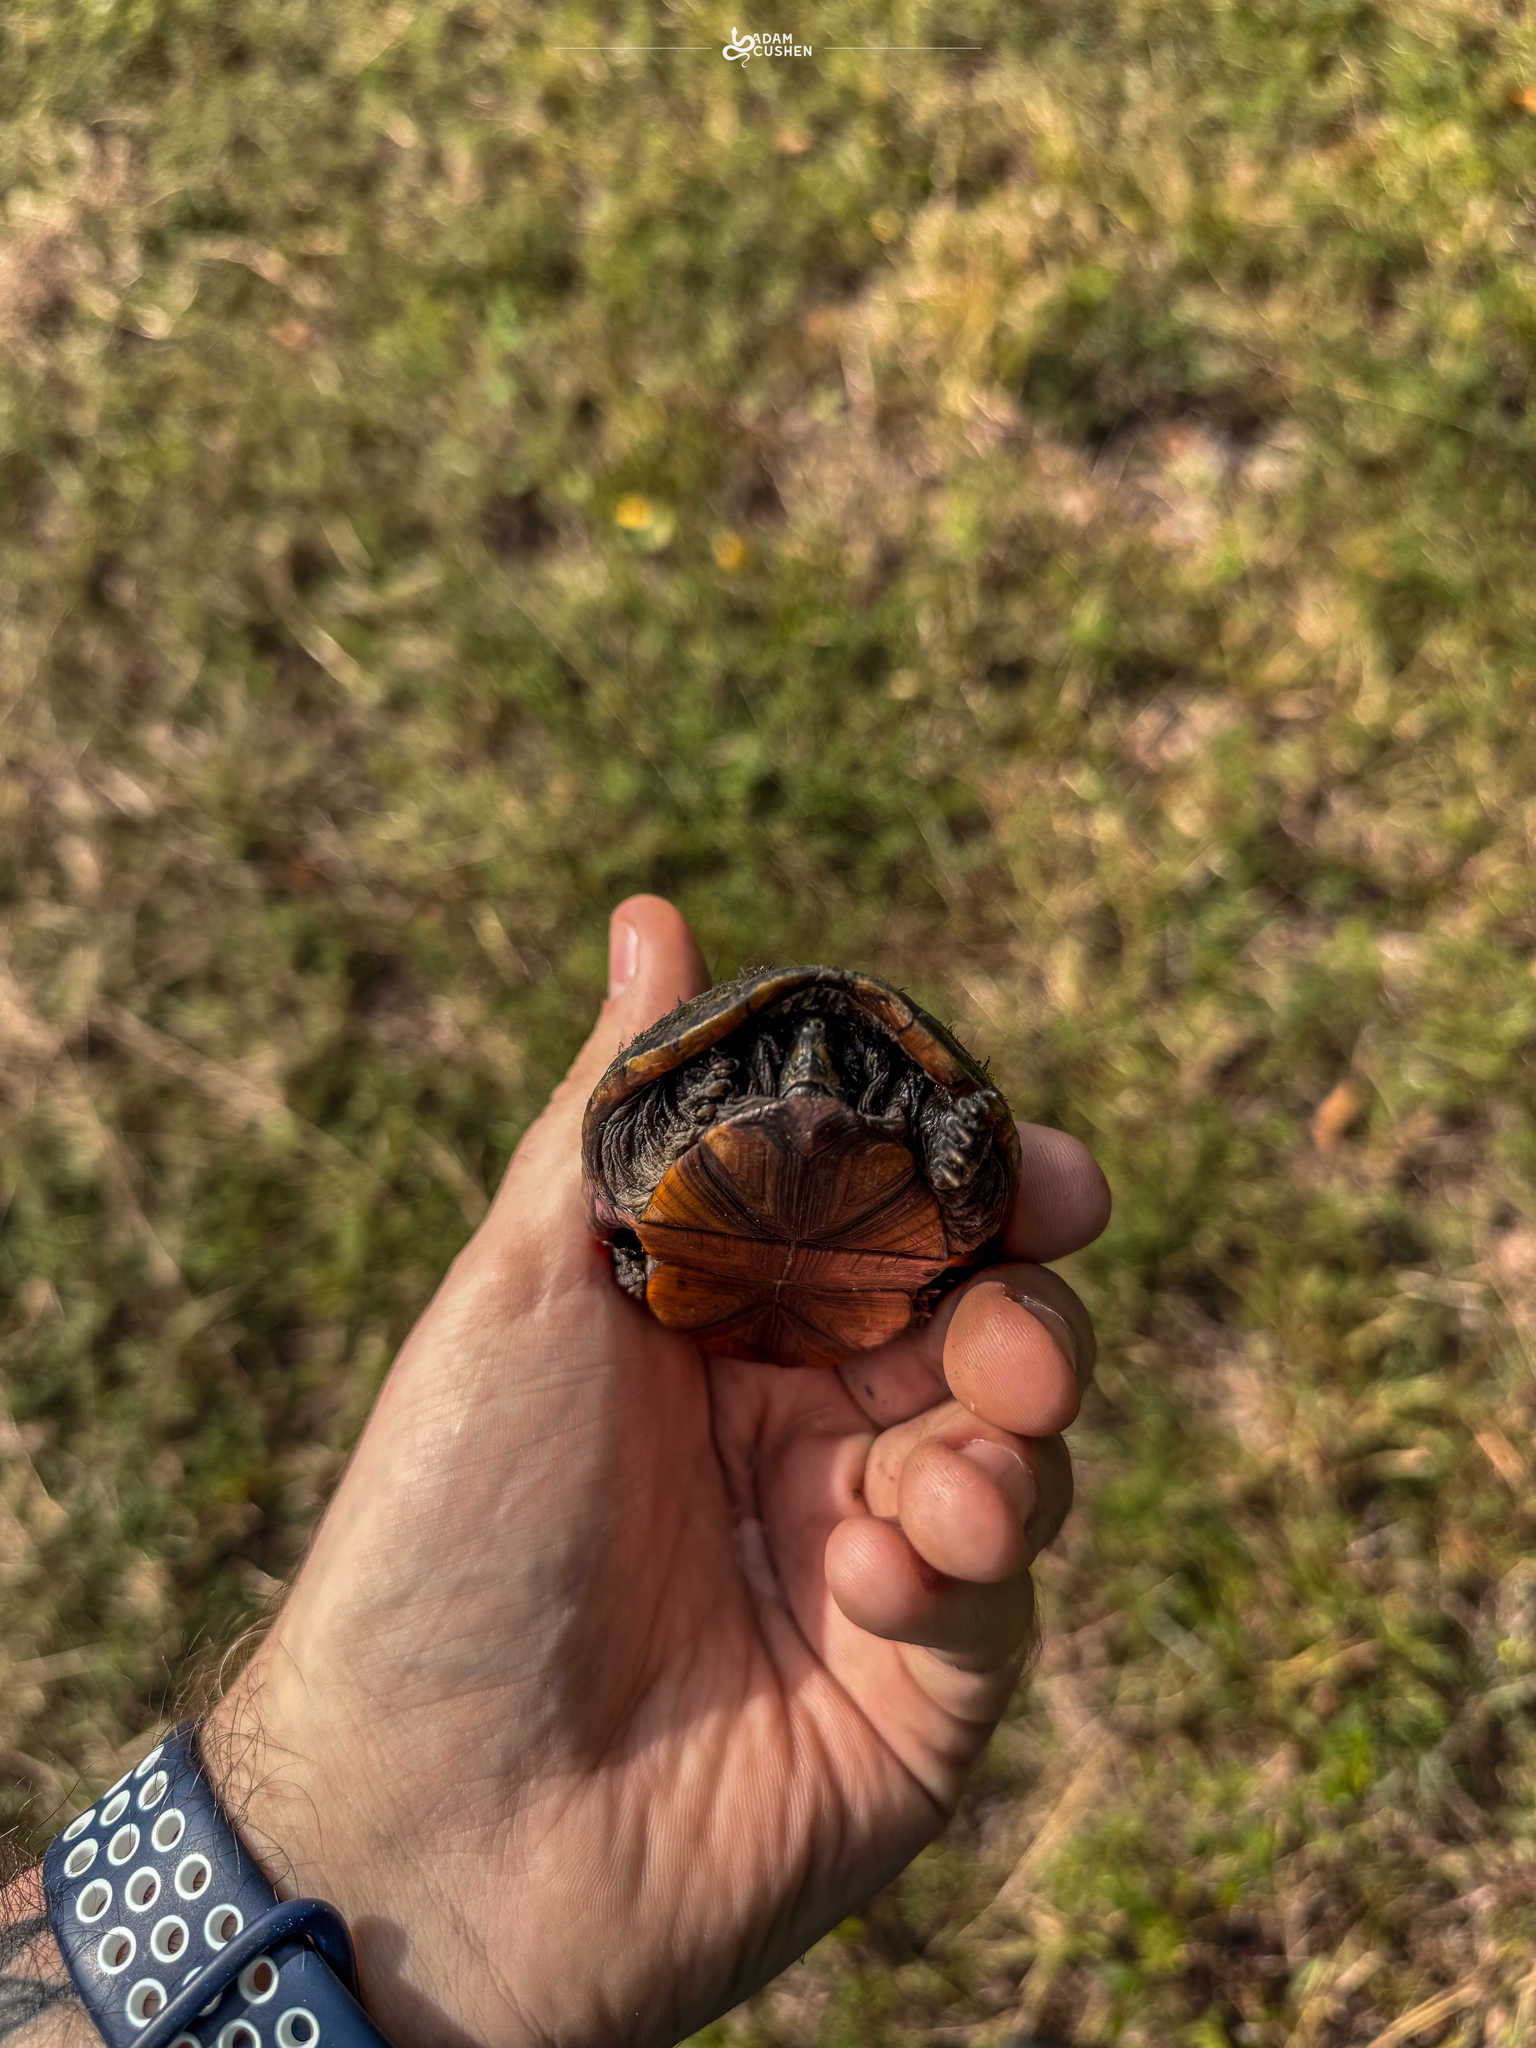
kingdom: Animalia
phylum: Chordata
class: Testudines
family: Kinosternidae
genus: Kinosternon
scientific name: Kinosternon baurii
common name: Striped mud turtle
